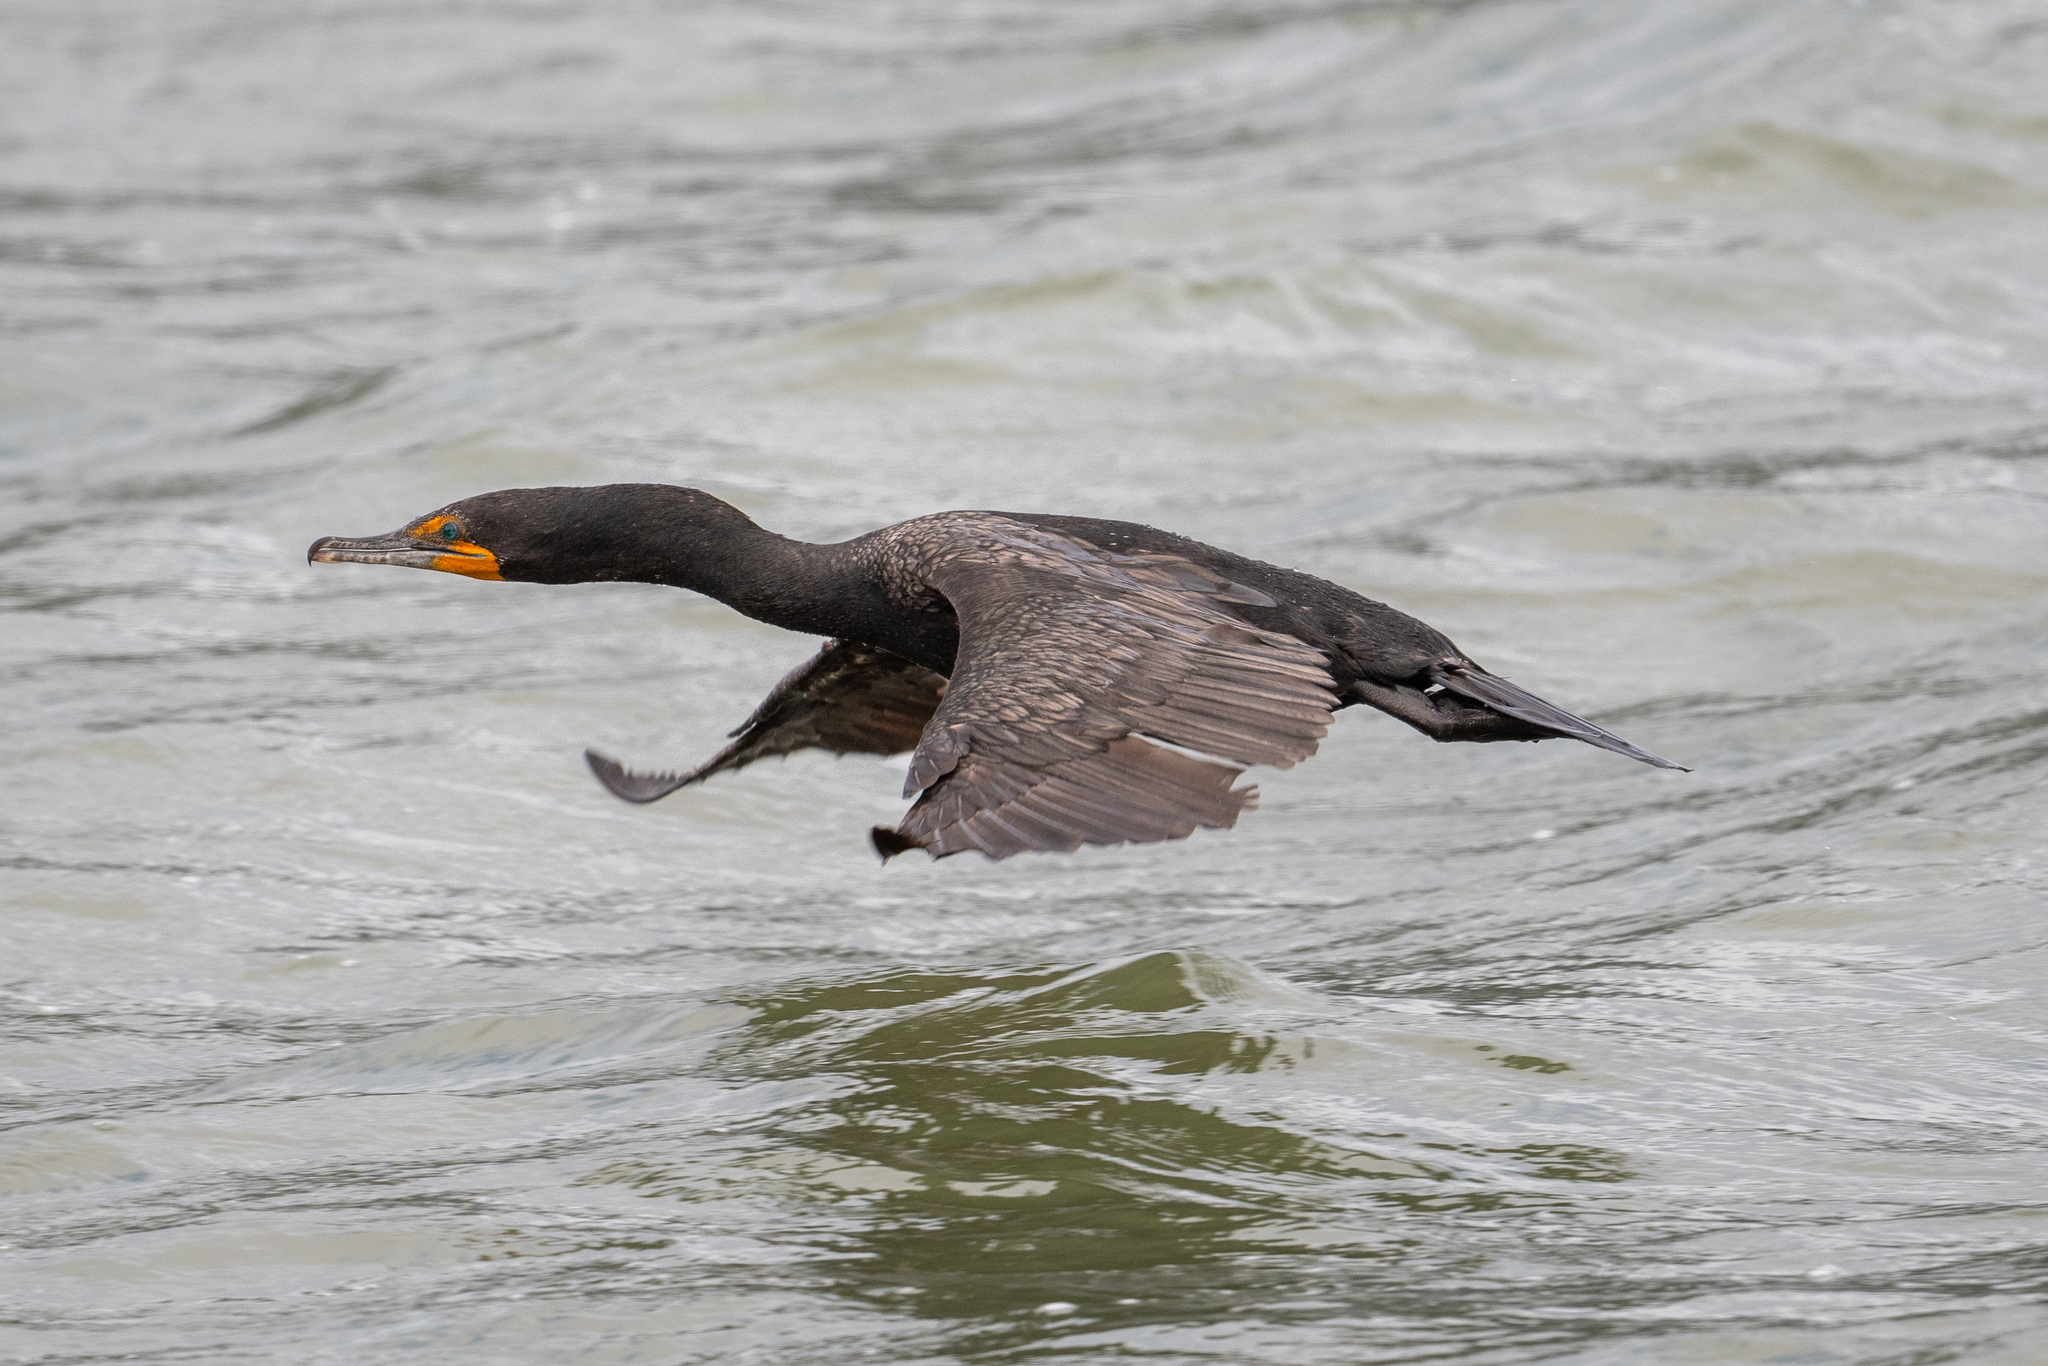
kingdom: Animalia
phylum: Chordata
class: Aves
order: Suliformes
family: Phalacrocoracidae
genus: Phalacrocorax
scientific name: Phalacrocorax auritus
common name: Double-crested cormorant
